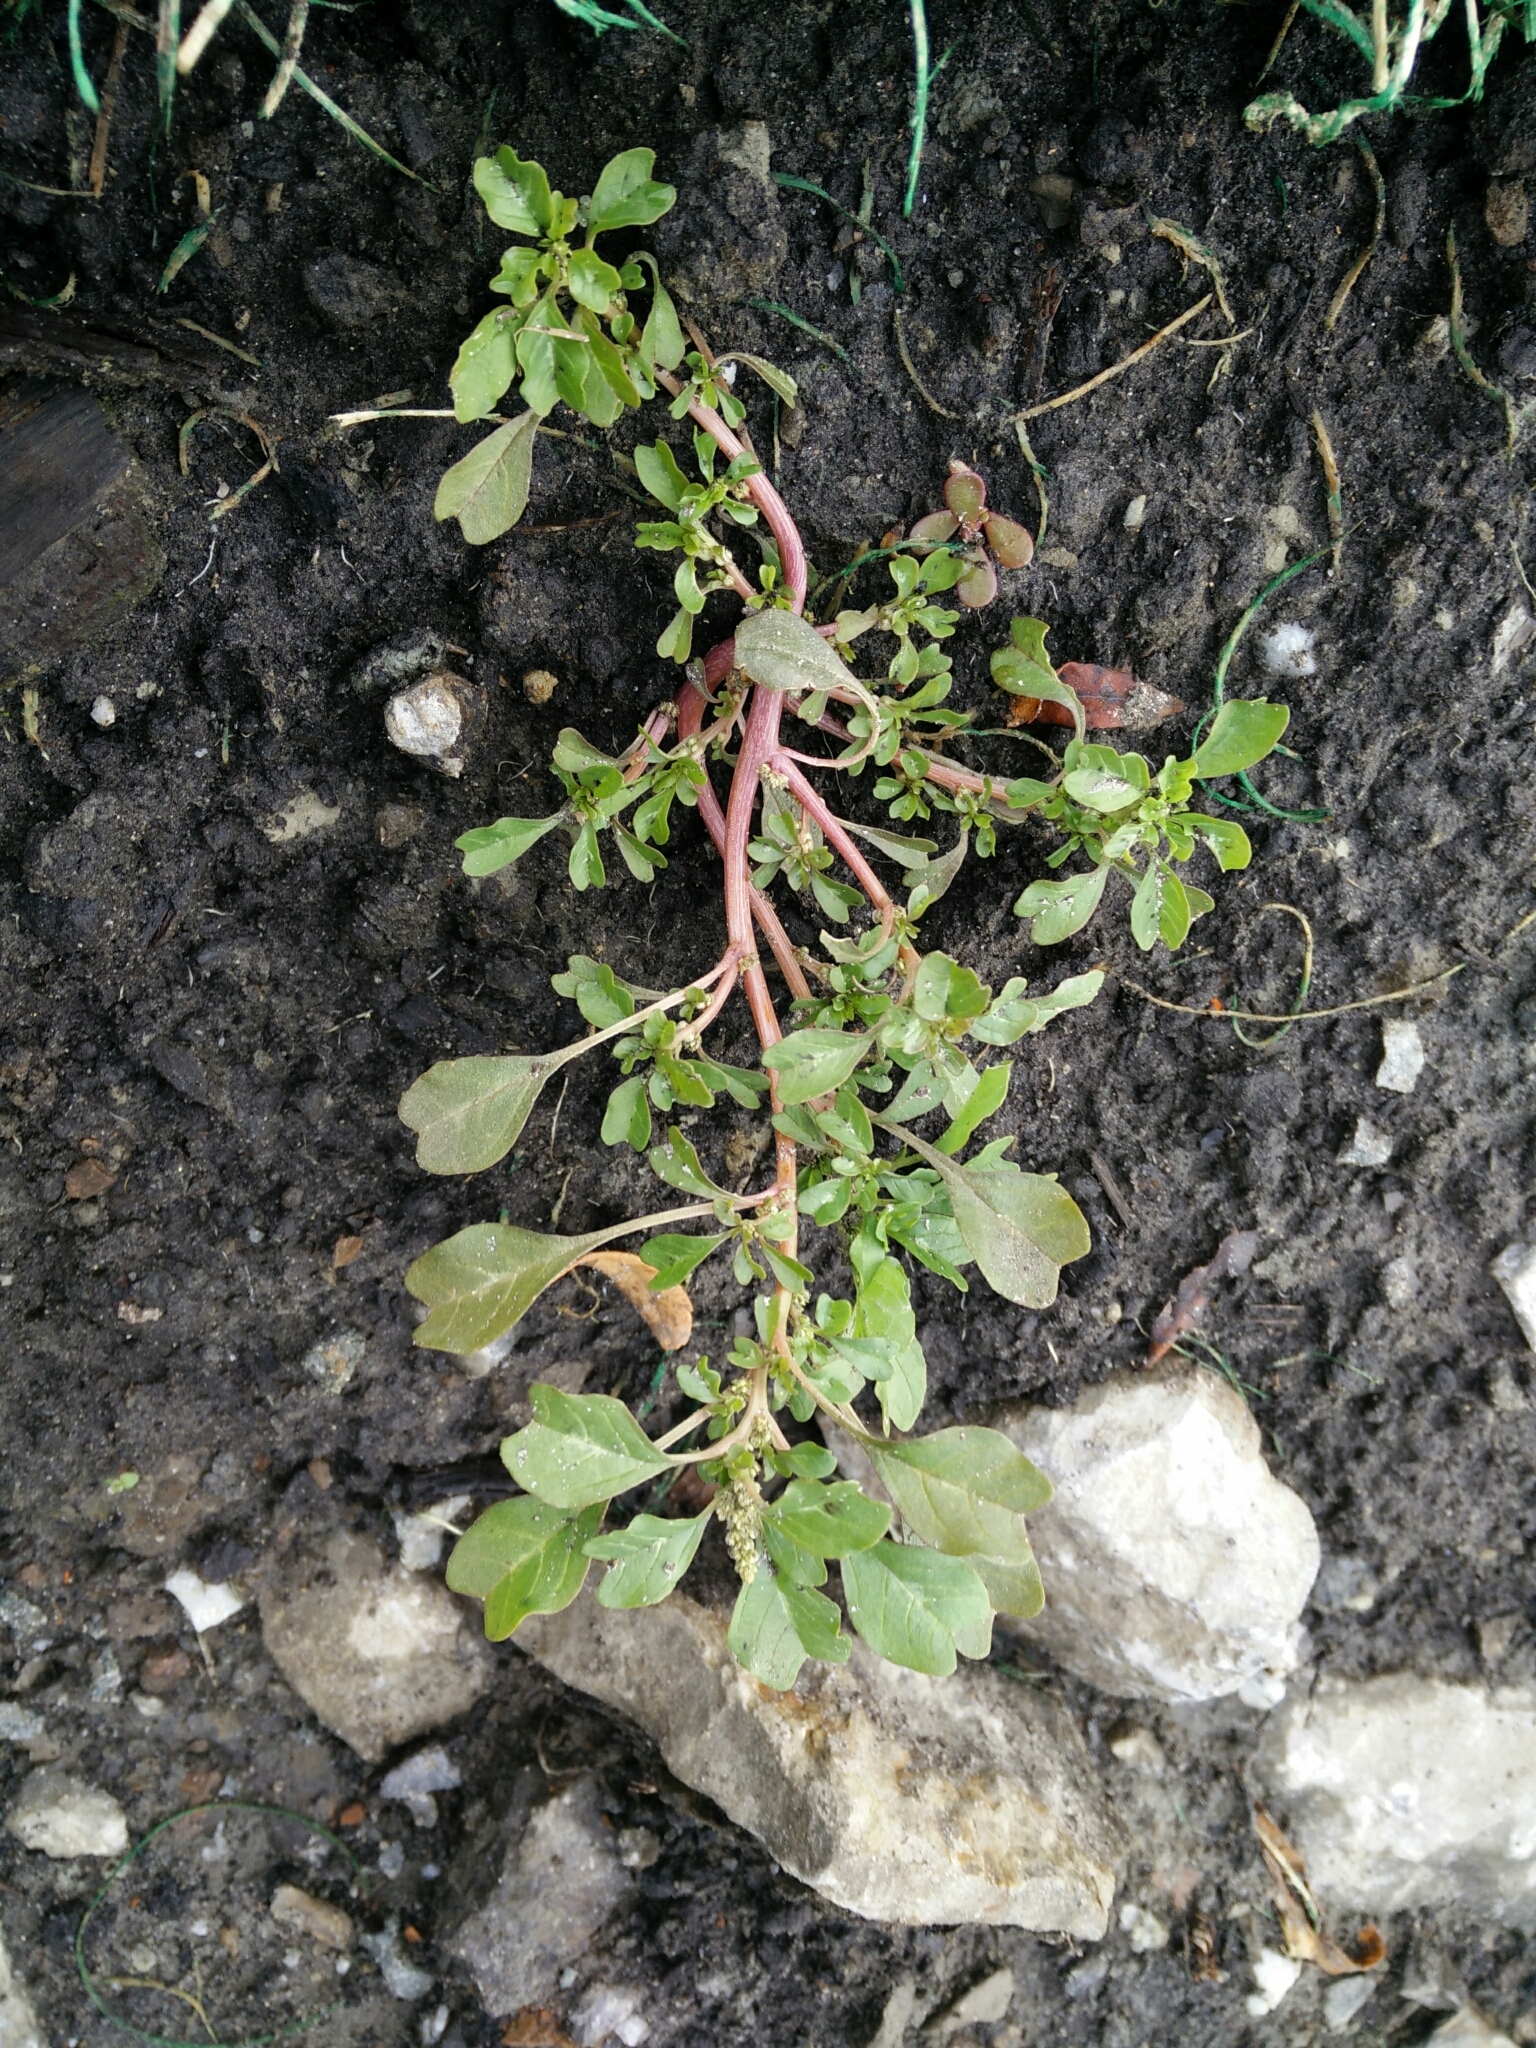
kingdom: Plantae
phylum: Tracheophyta
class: Magnoliopsida
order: Caryophyllales
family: Amaranthaceae
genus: Amaranthus
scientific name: Amaranthus blitoides
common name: Prostrate pigweed
